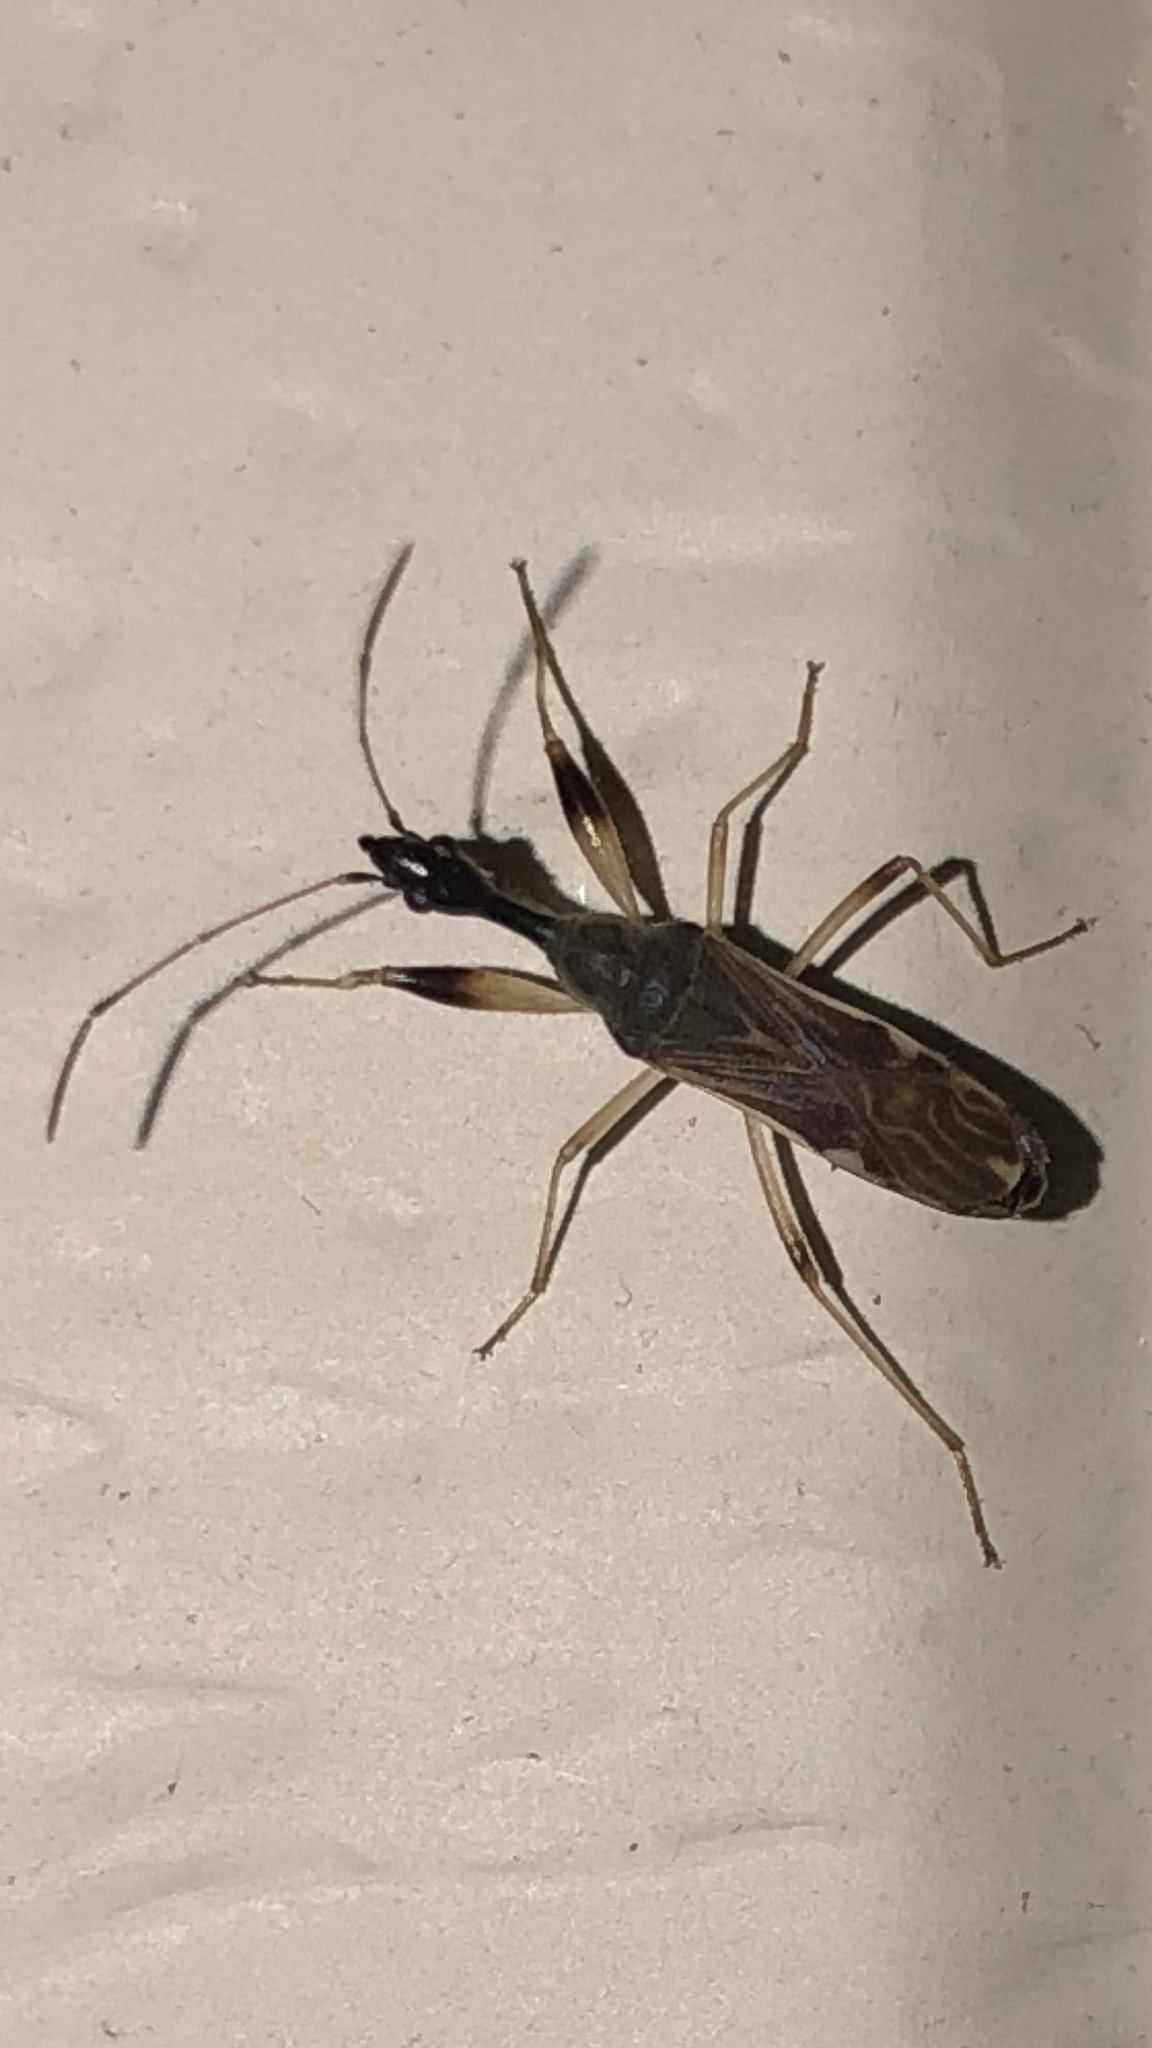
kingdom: Animalia
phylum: Arthropoda
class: Insecta
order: Hemiptera
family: Rhyparochromidae
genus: Myodocha
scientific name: Myodocha serripes
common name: Long-necked seed bug
